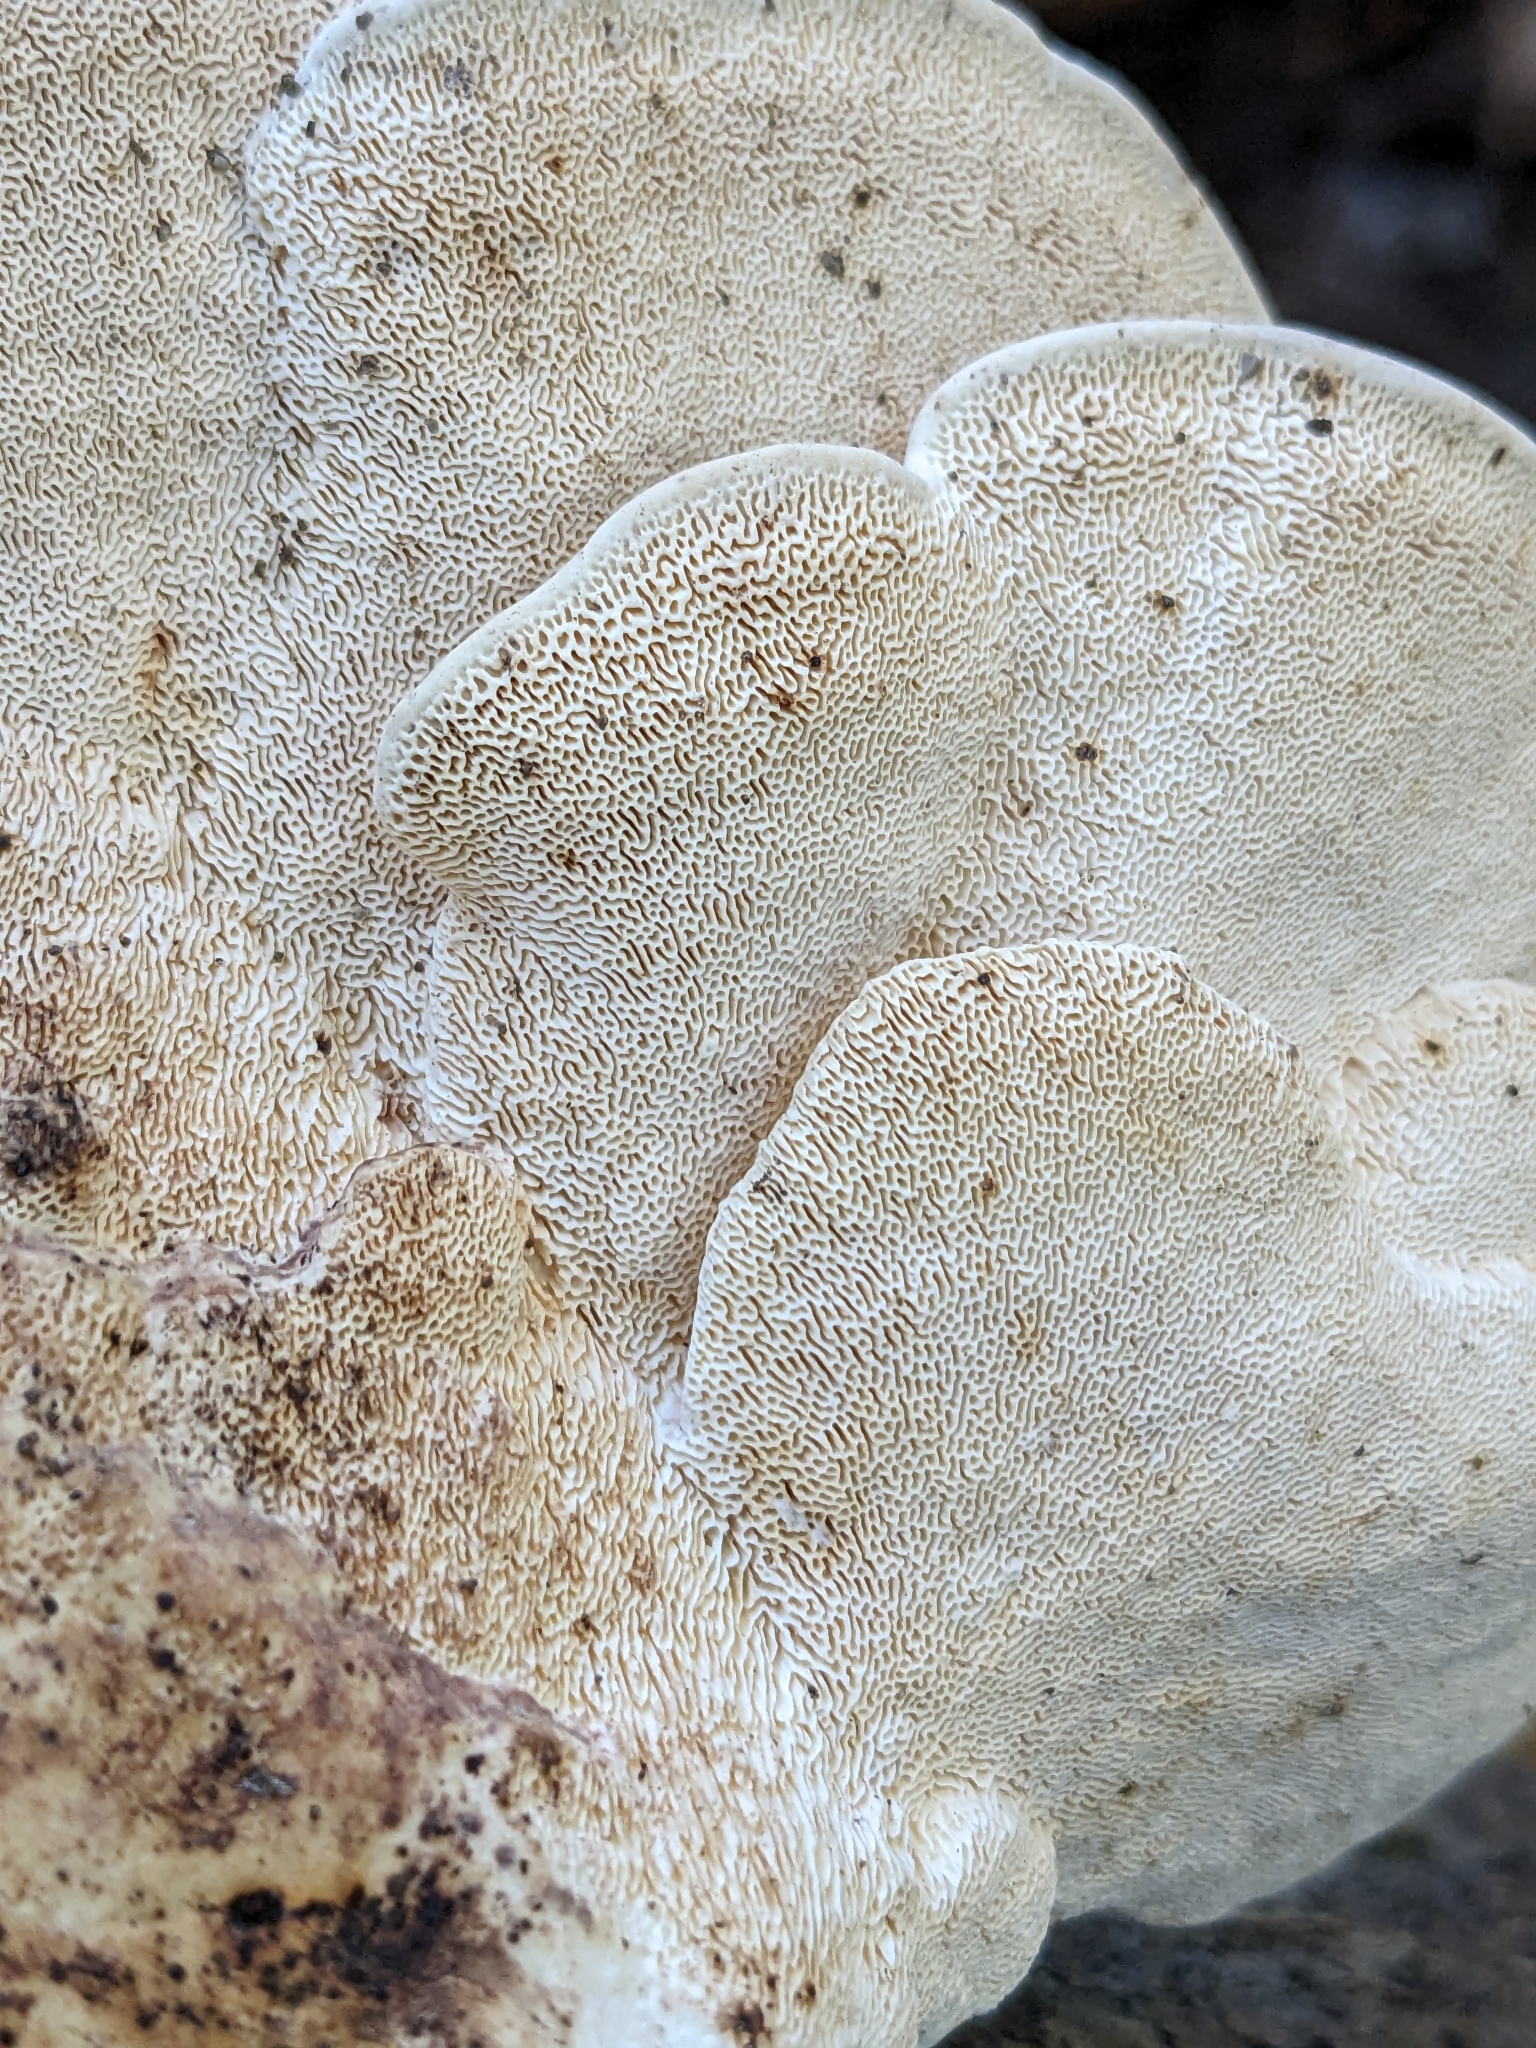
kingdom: Fungi
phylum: Basidiomycota
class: Agaricomycetes
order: Polyporales
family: Polyporaceae
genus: Trametes
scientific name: Trametes
